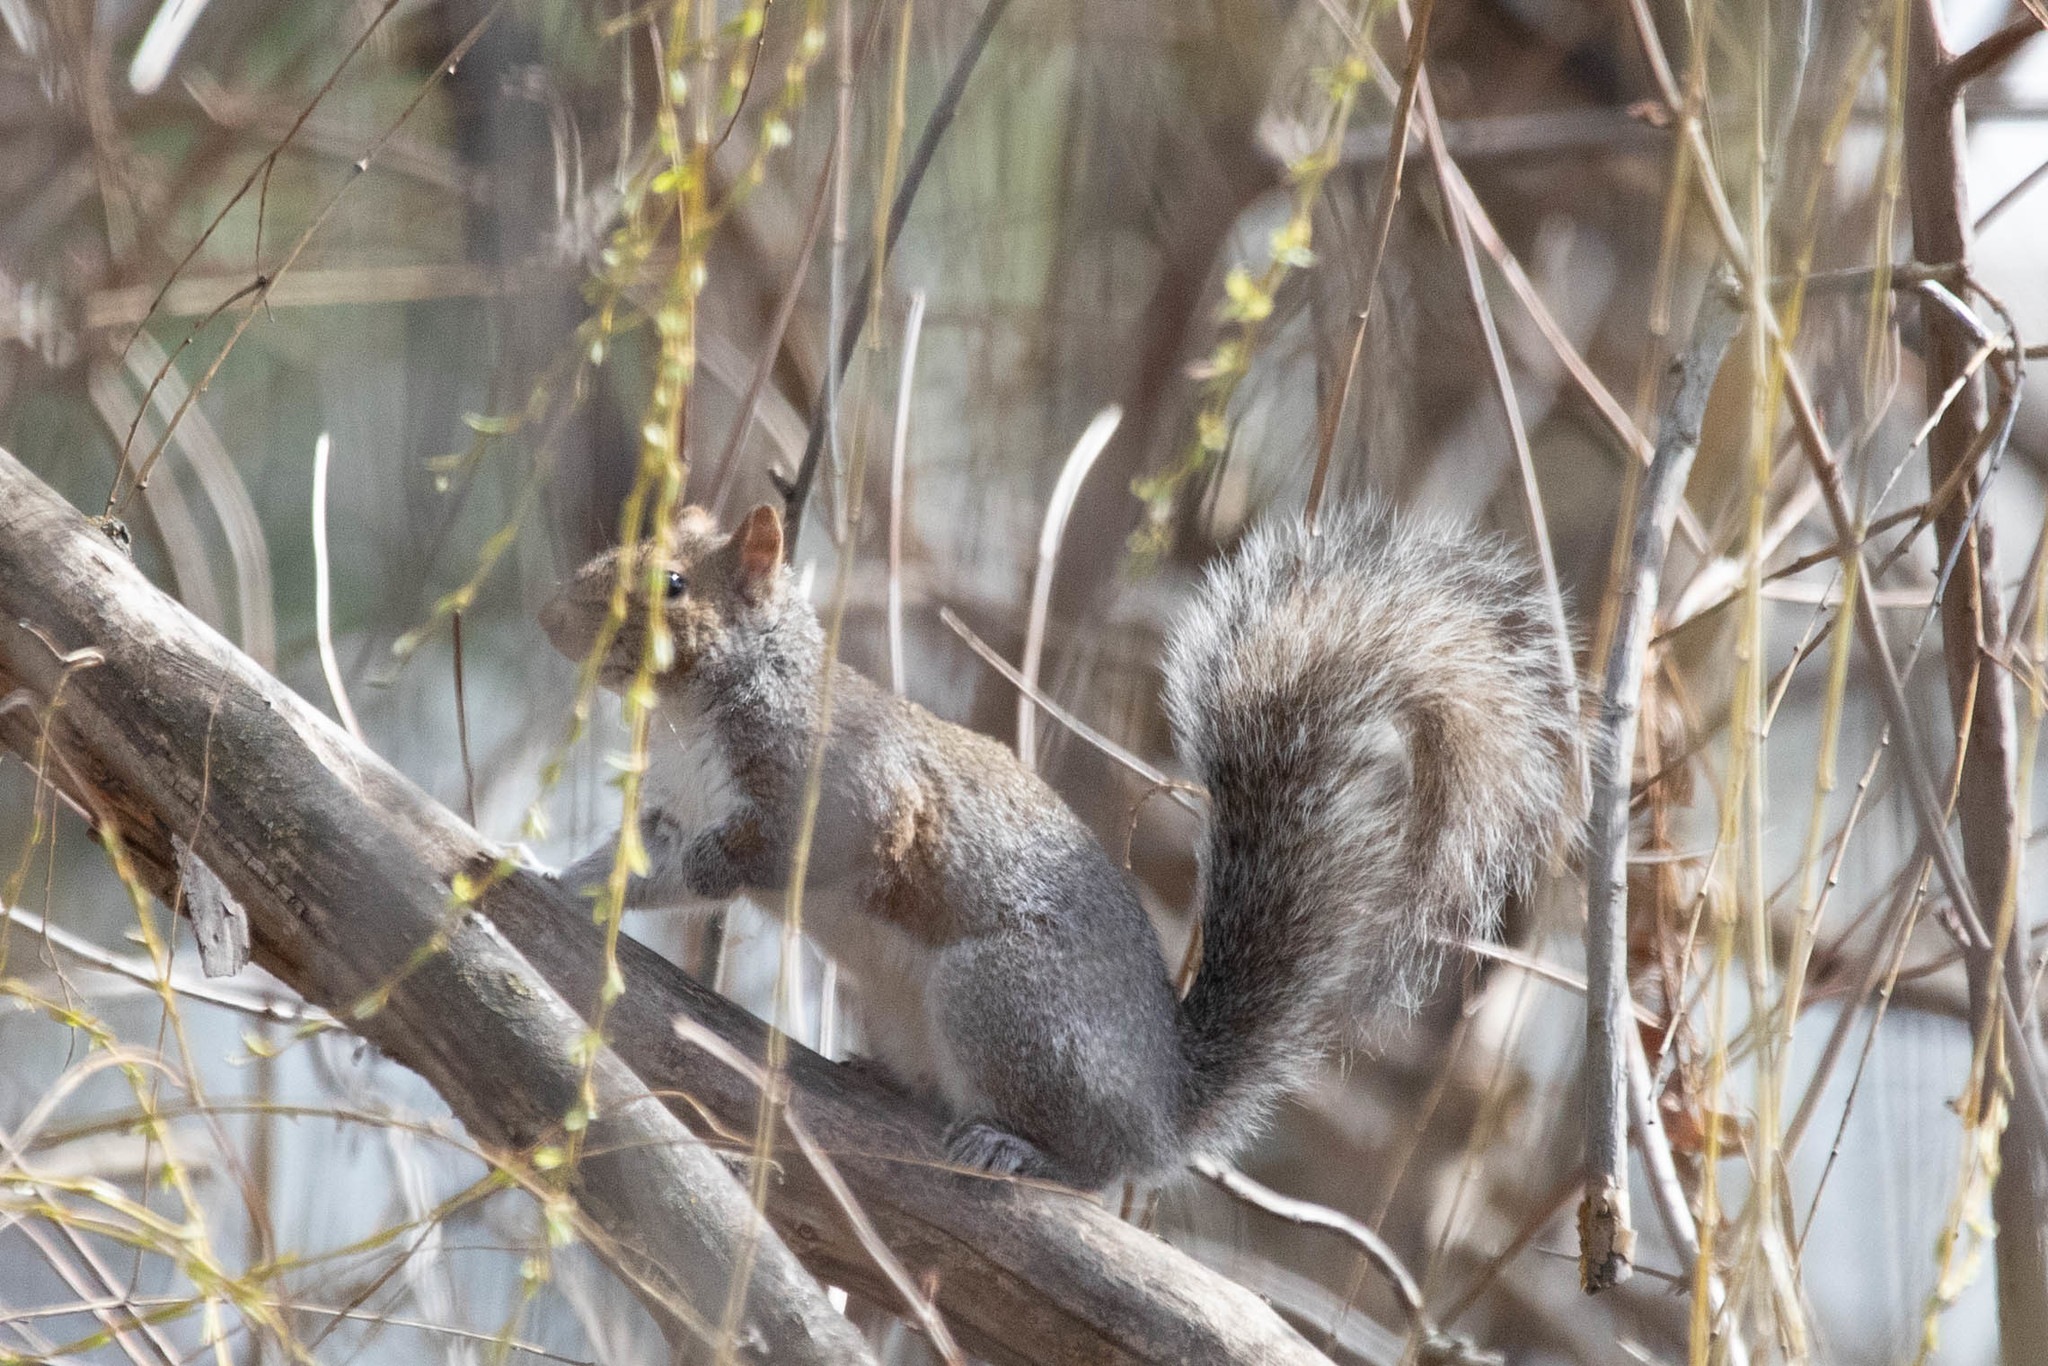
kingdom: Animalia
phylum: Chordata
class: Mammalia
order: Rodentia
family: Sciuridae
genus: Sciurus
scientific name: Sciurus carolinensis
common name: Eastern gray squirrel
